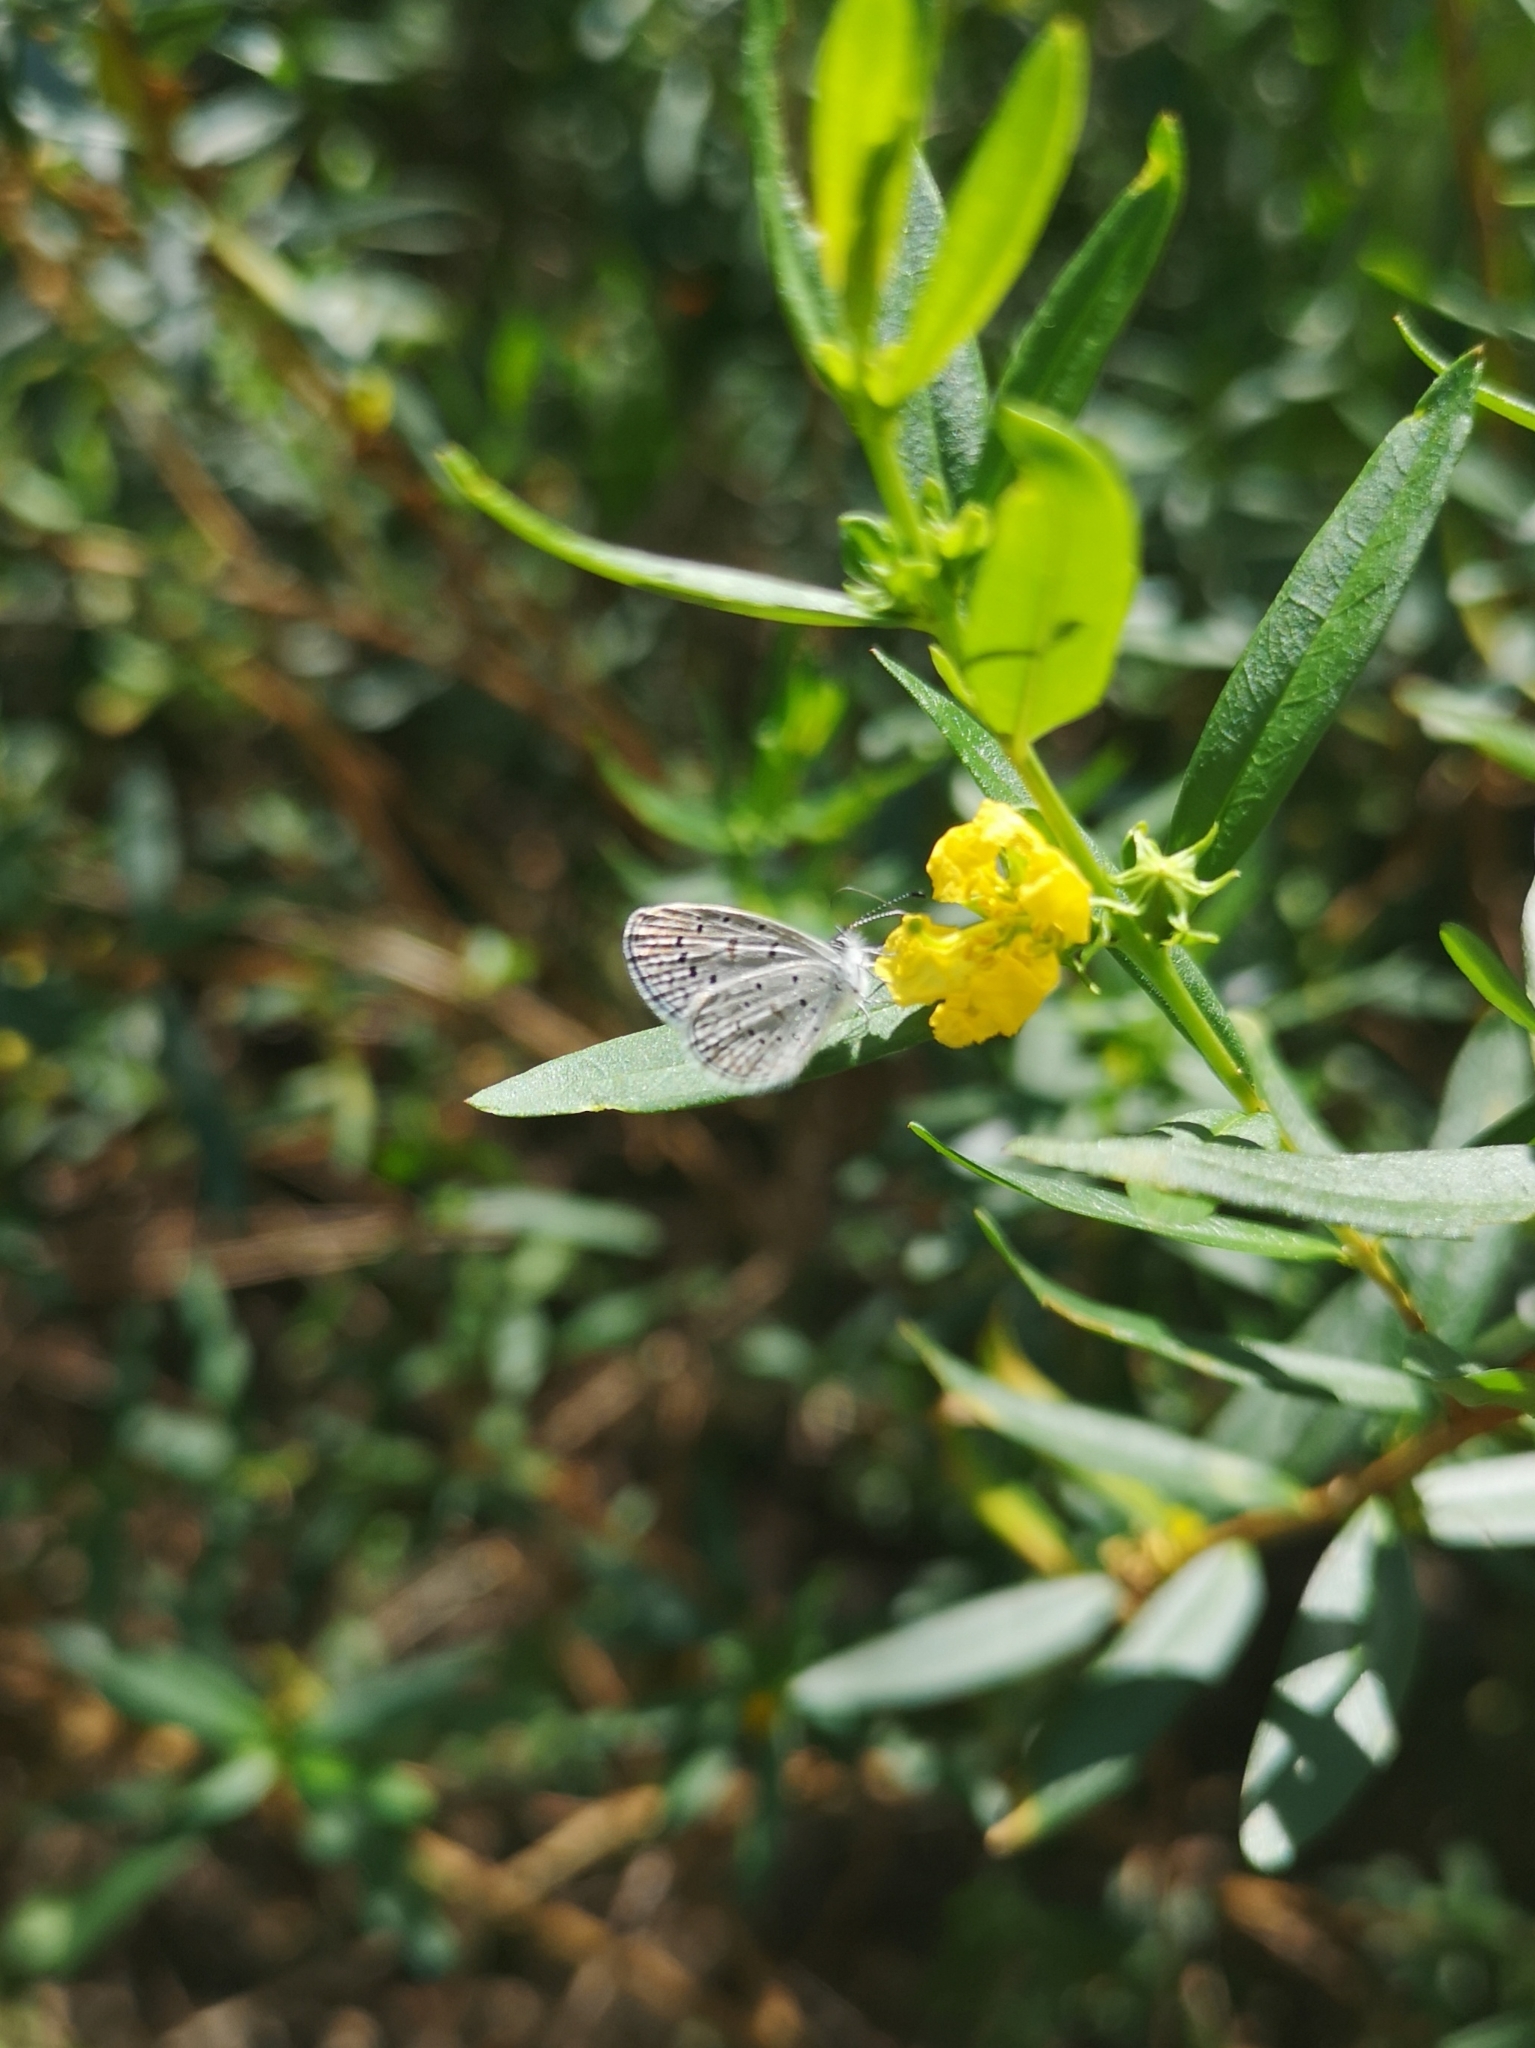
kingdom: Animalia
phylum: Arthropoda
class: Insecta
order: Lepidoptera
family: Lycaenidae
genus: Lycaena
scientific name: Lycaena cyna
